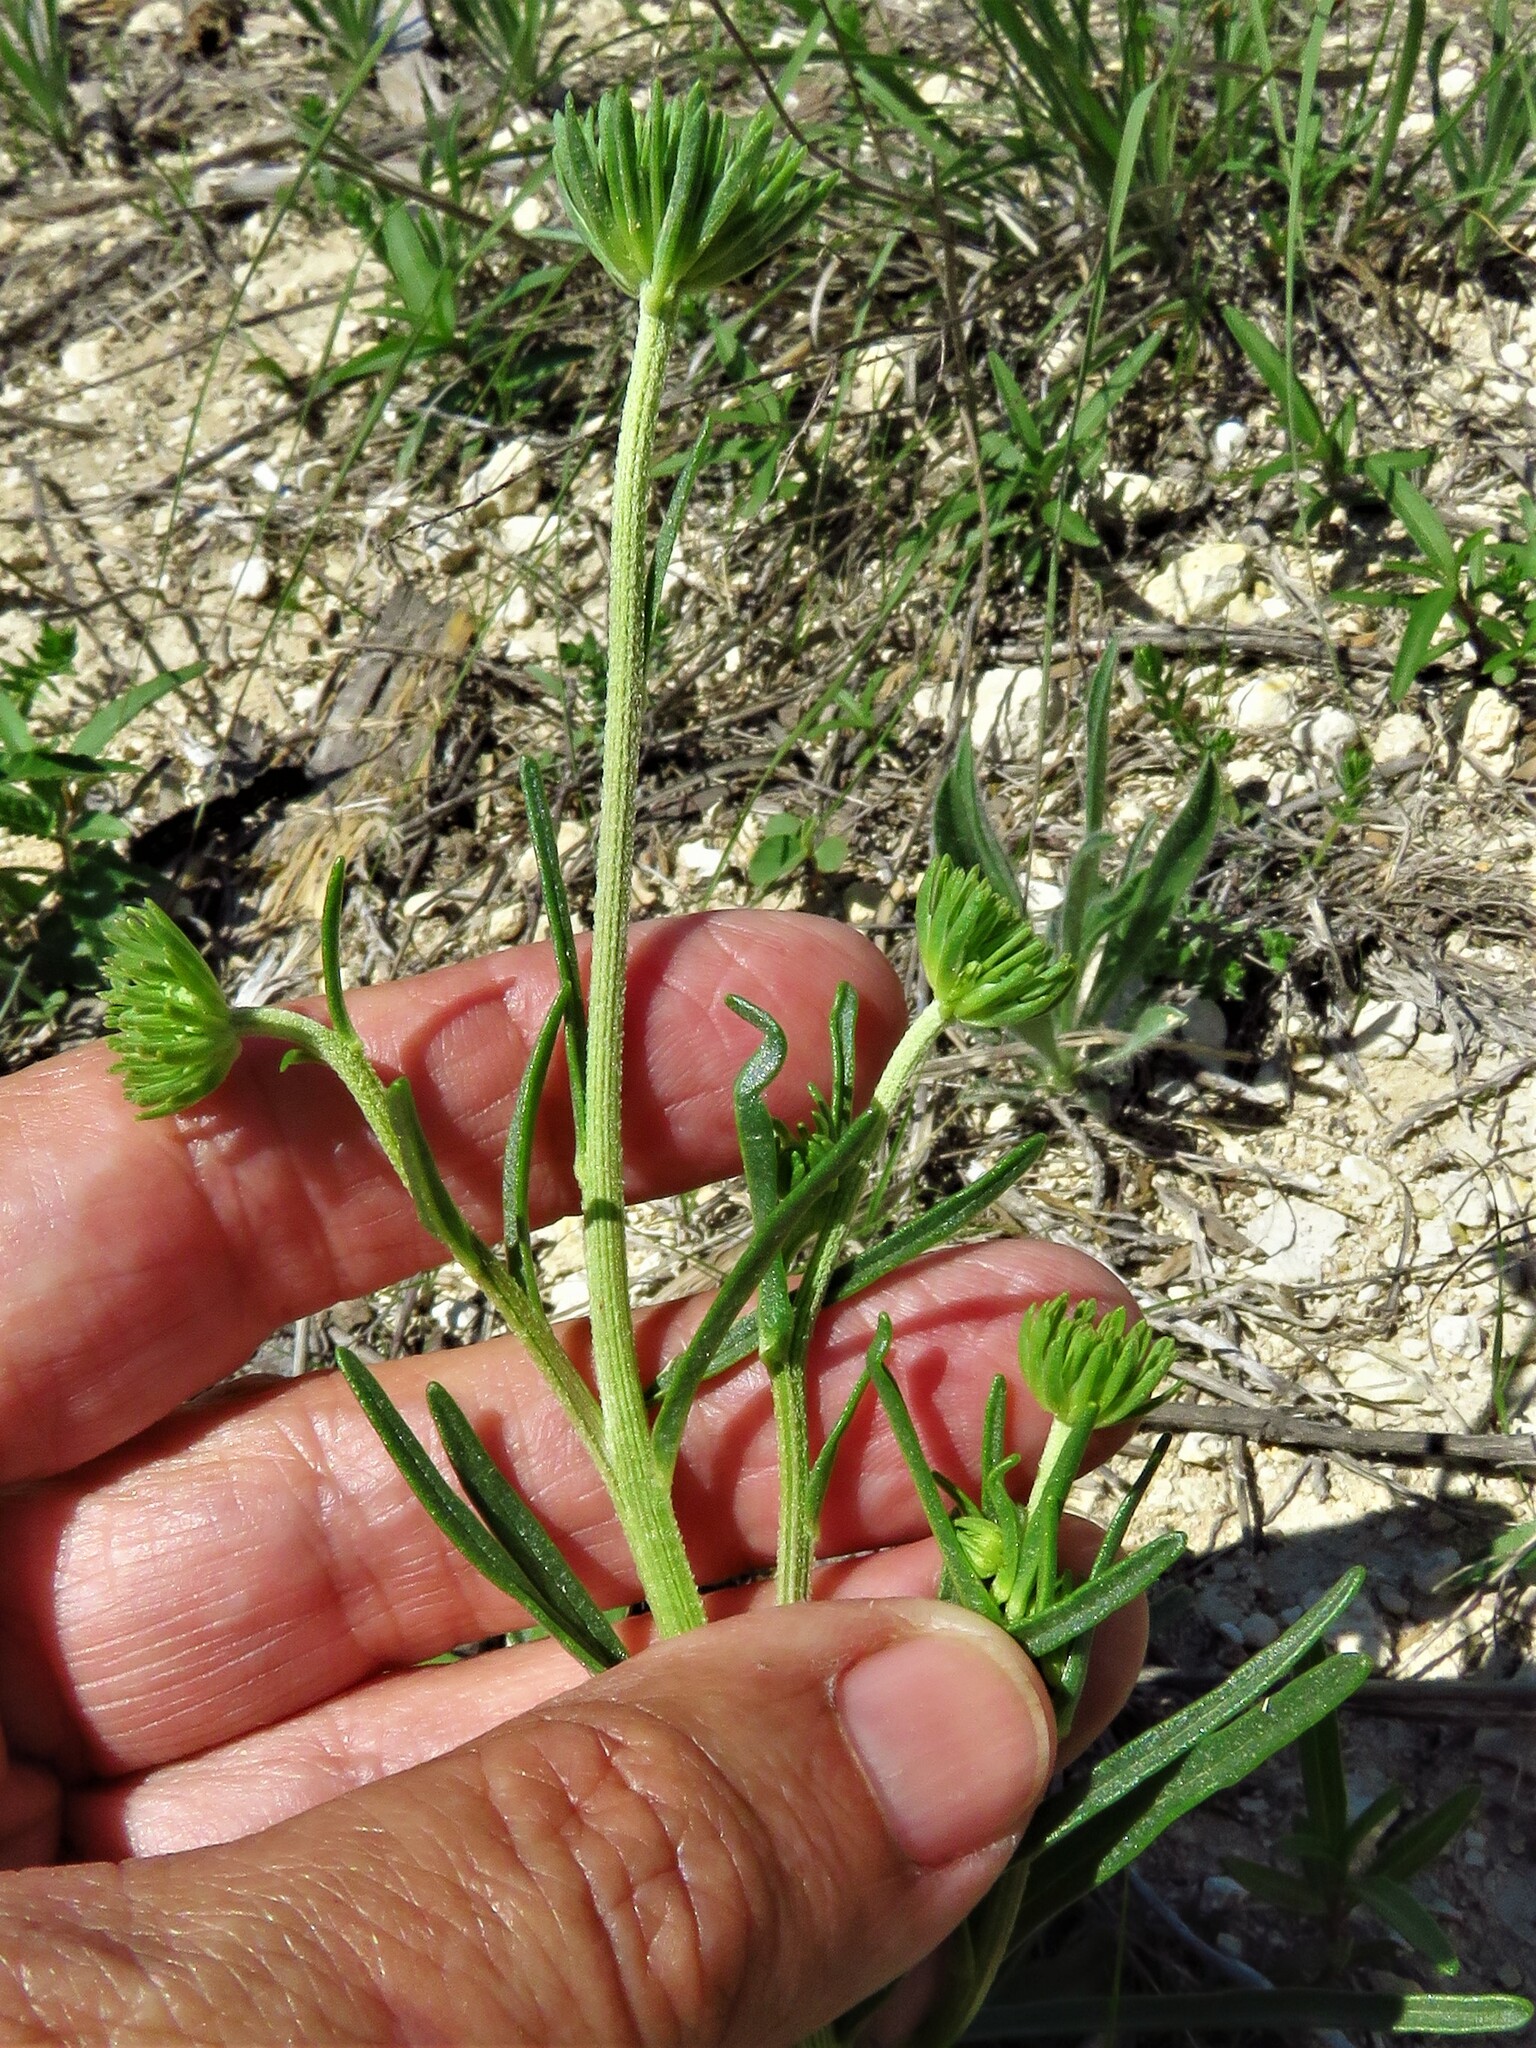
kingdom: Plantae
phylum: Tracheophyta
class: Magnoliopsida
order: Asterales
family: Asteraceae
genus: Marshallia
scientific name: Marshallia caespitosa
